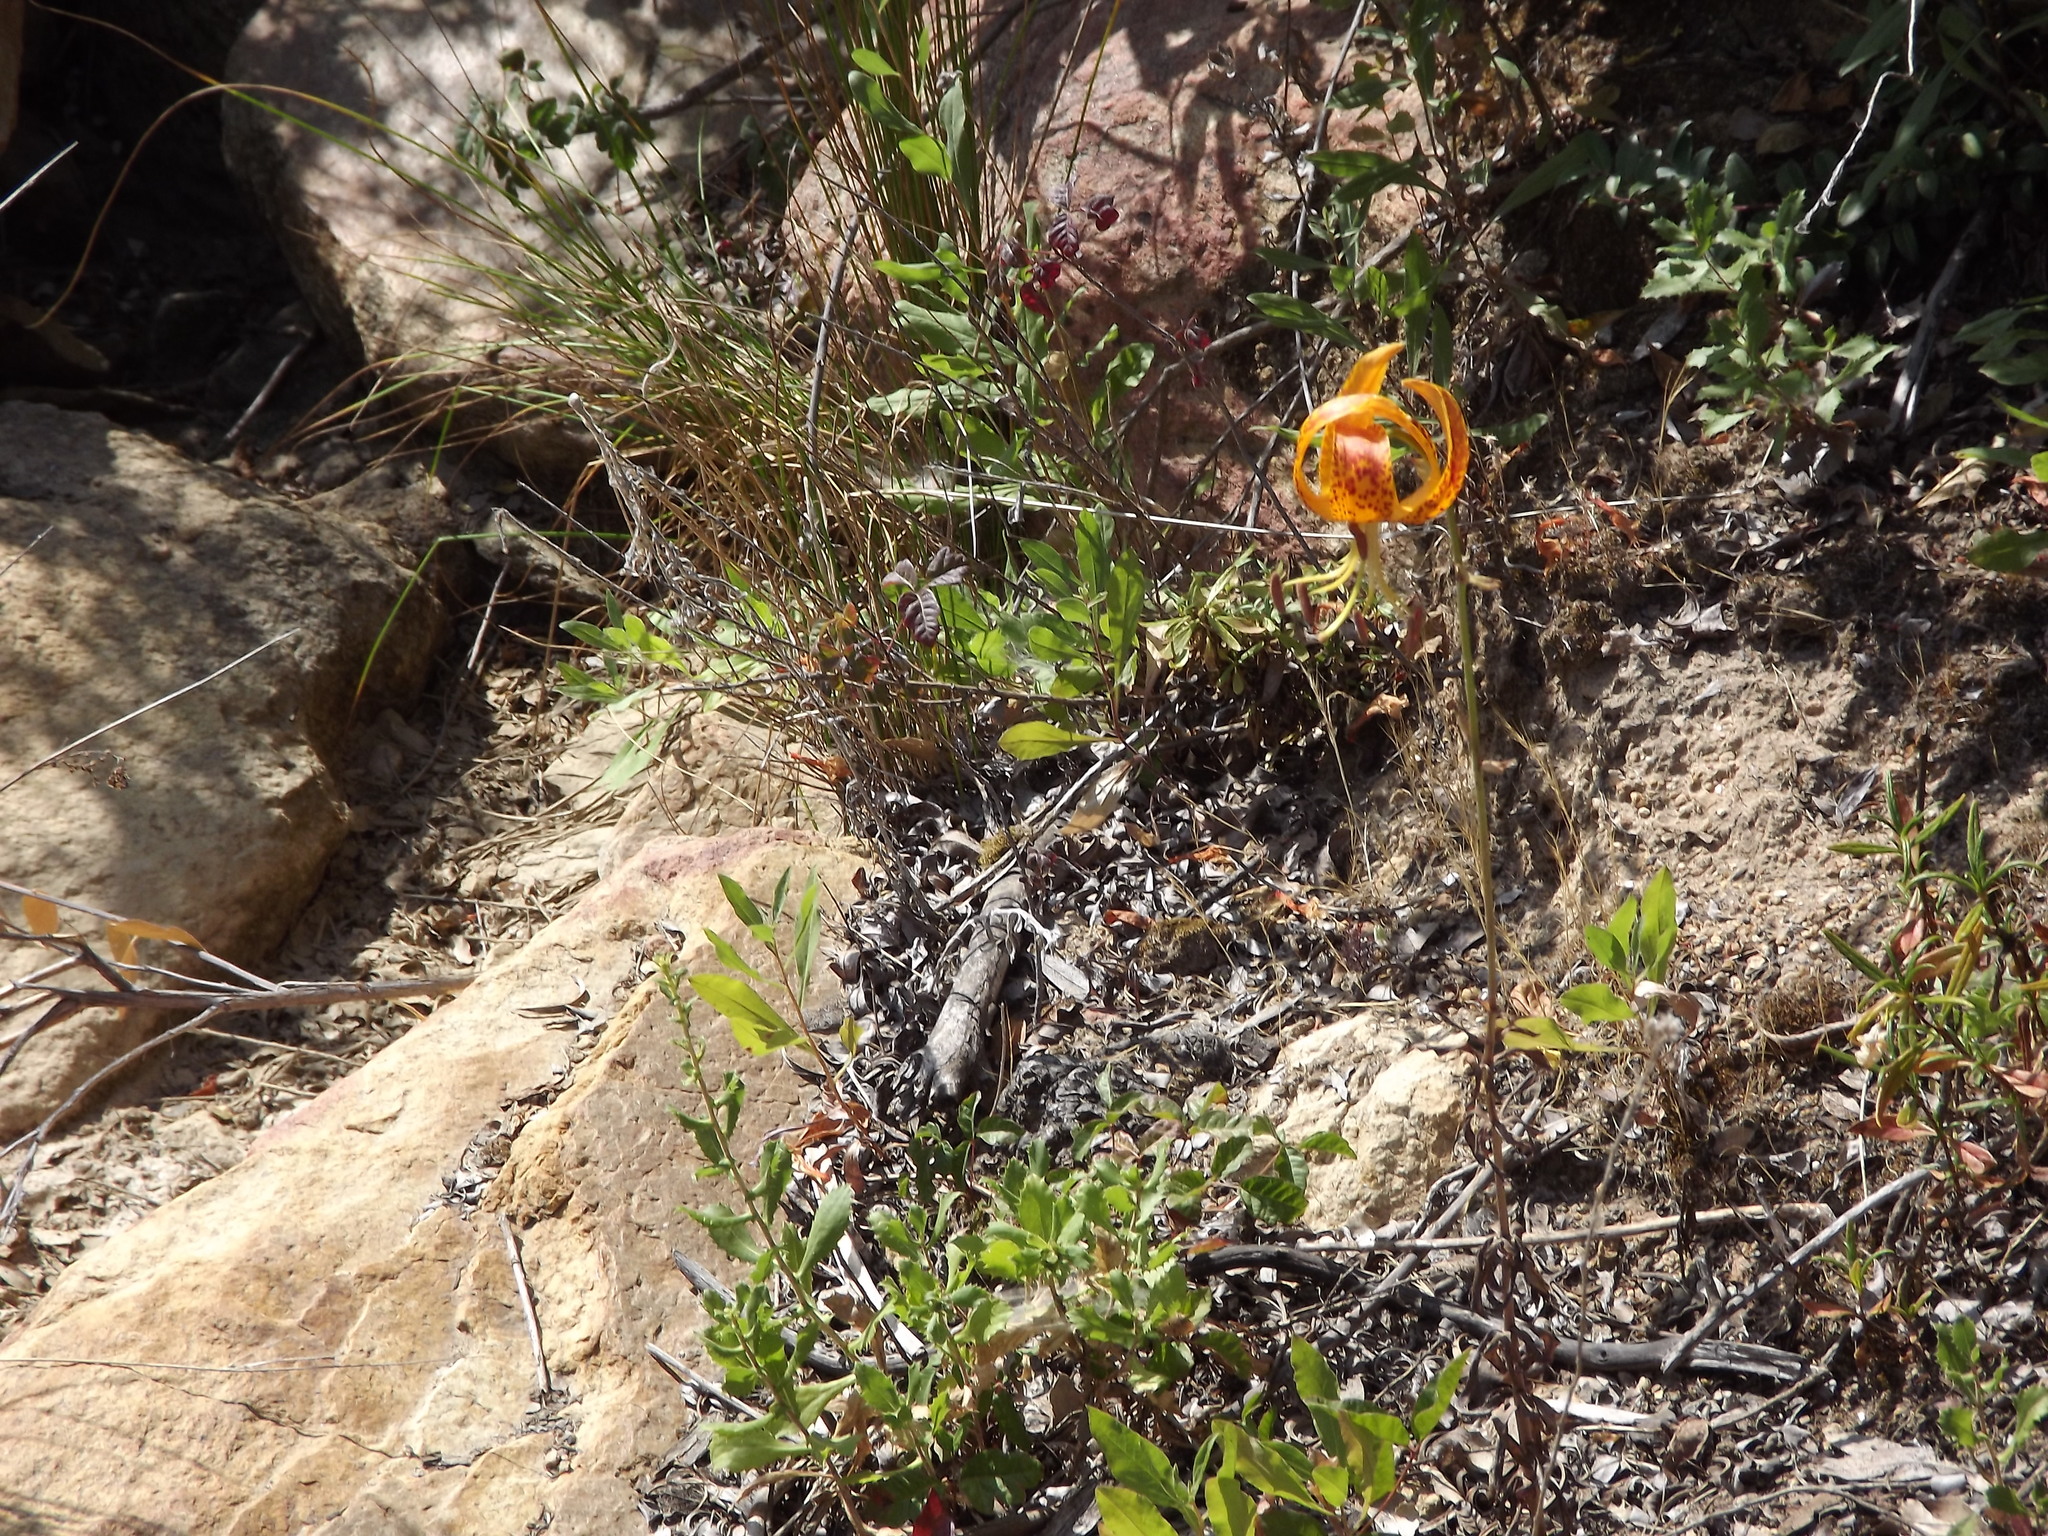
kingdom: Plantae
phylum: Tracheophyta
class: Liliopsida
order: Liliales
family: Liliaceae
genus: Lilium
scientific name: Lilium humboldtii
